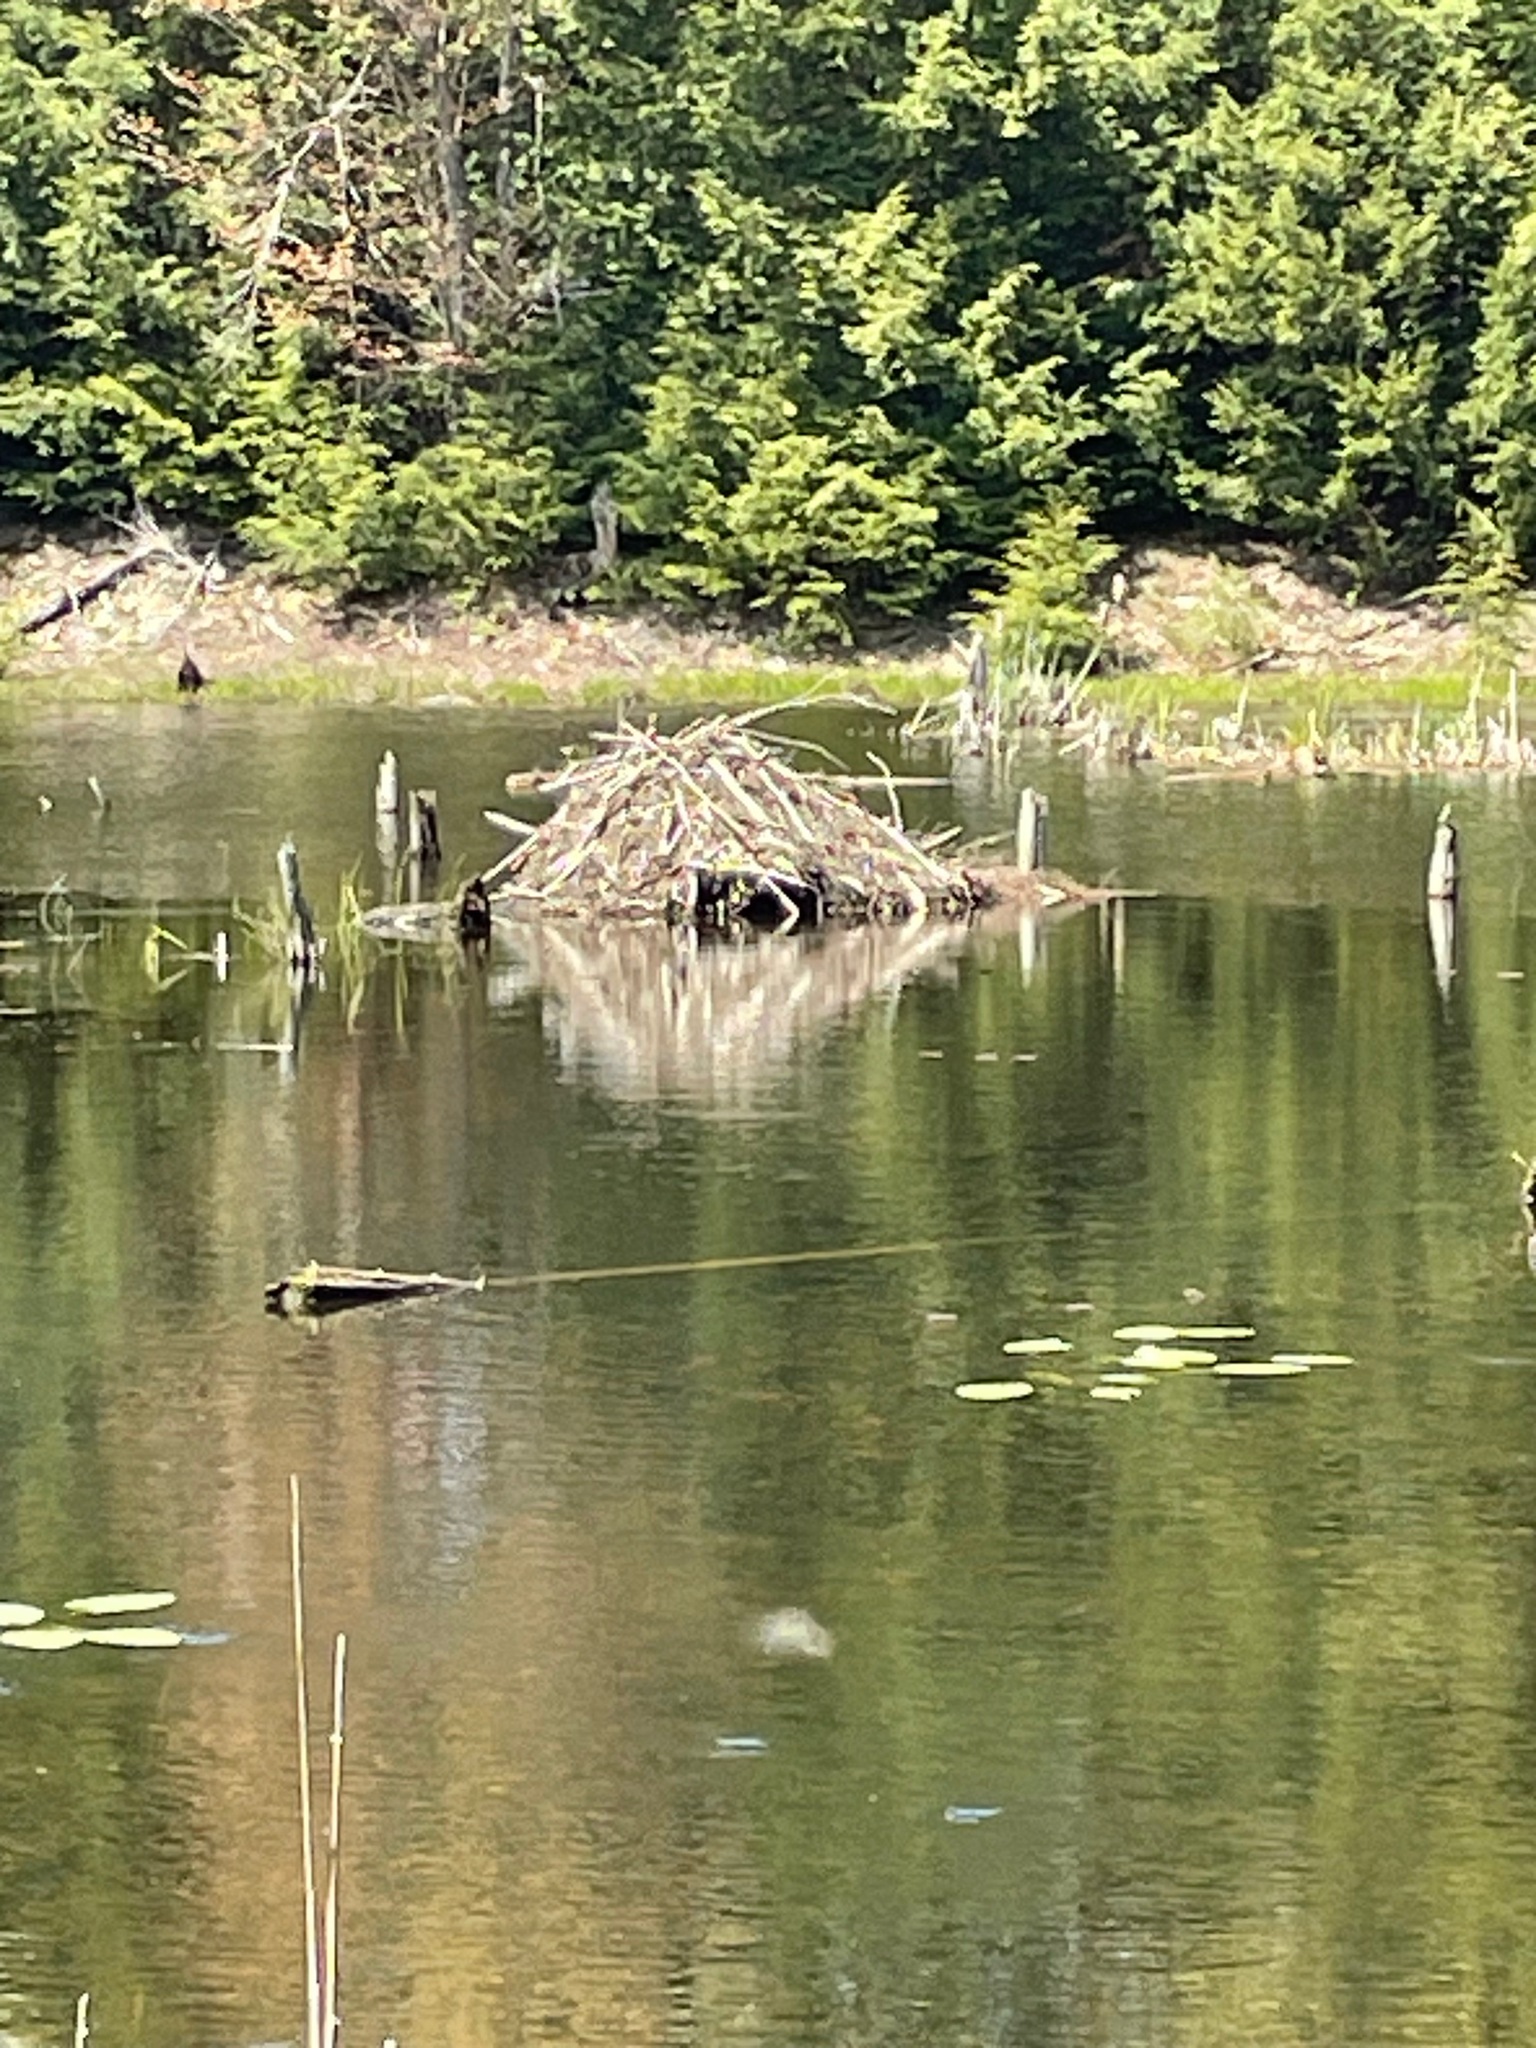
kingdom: Animalia
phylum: Chordata
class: Mammalia
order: Rodentia
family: Castoridae
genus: Castor
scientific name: Castor canadensis
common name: American beaver
